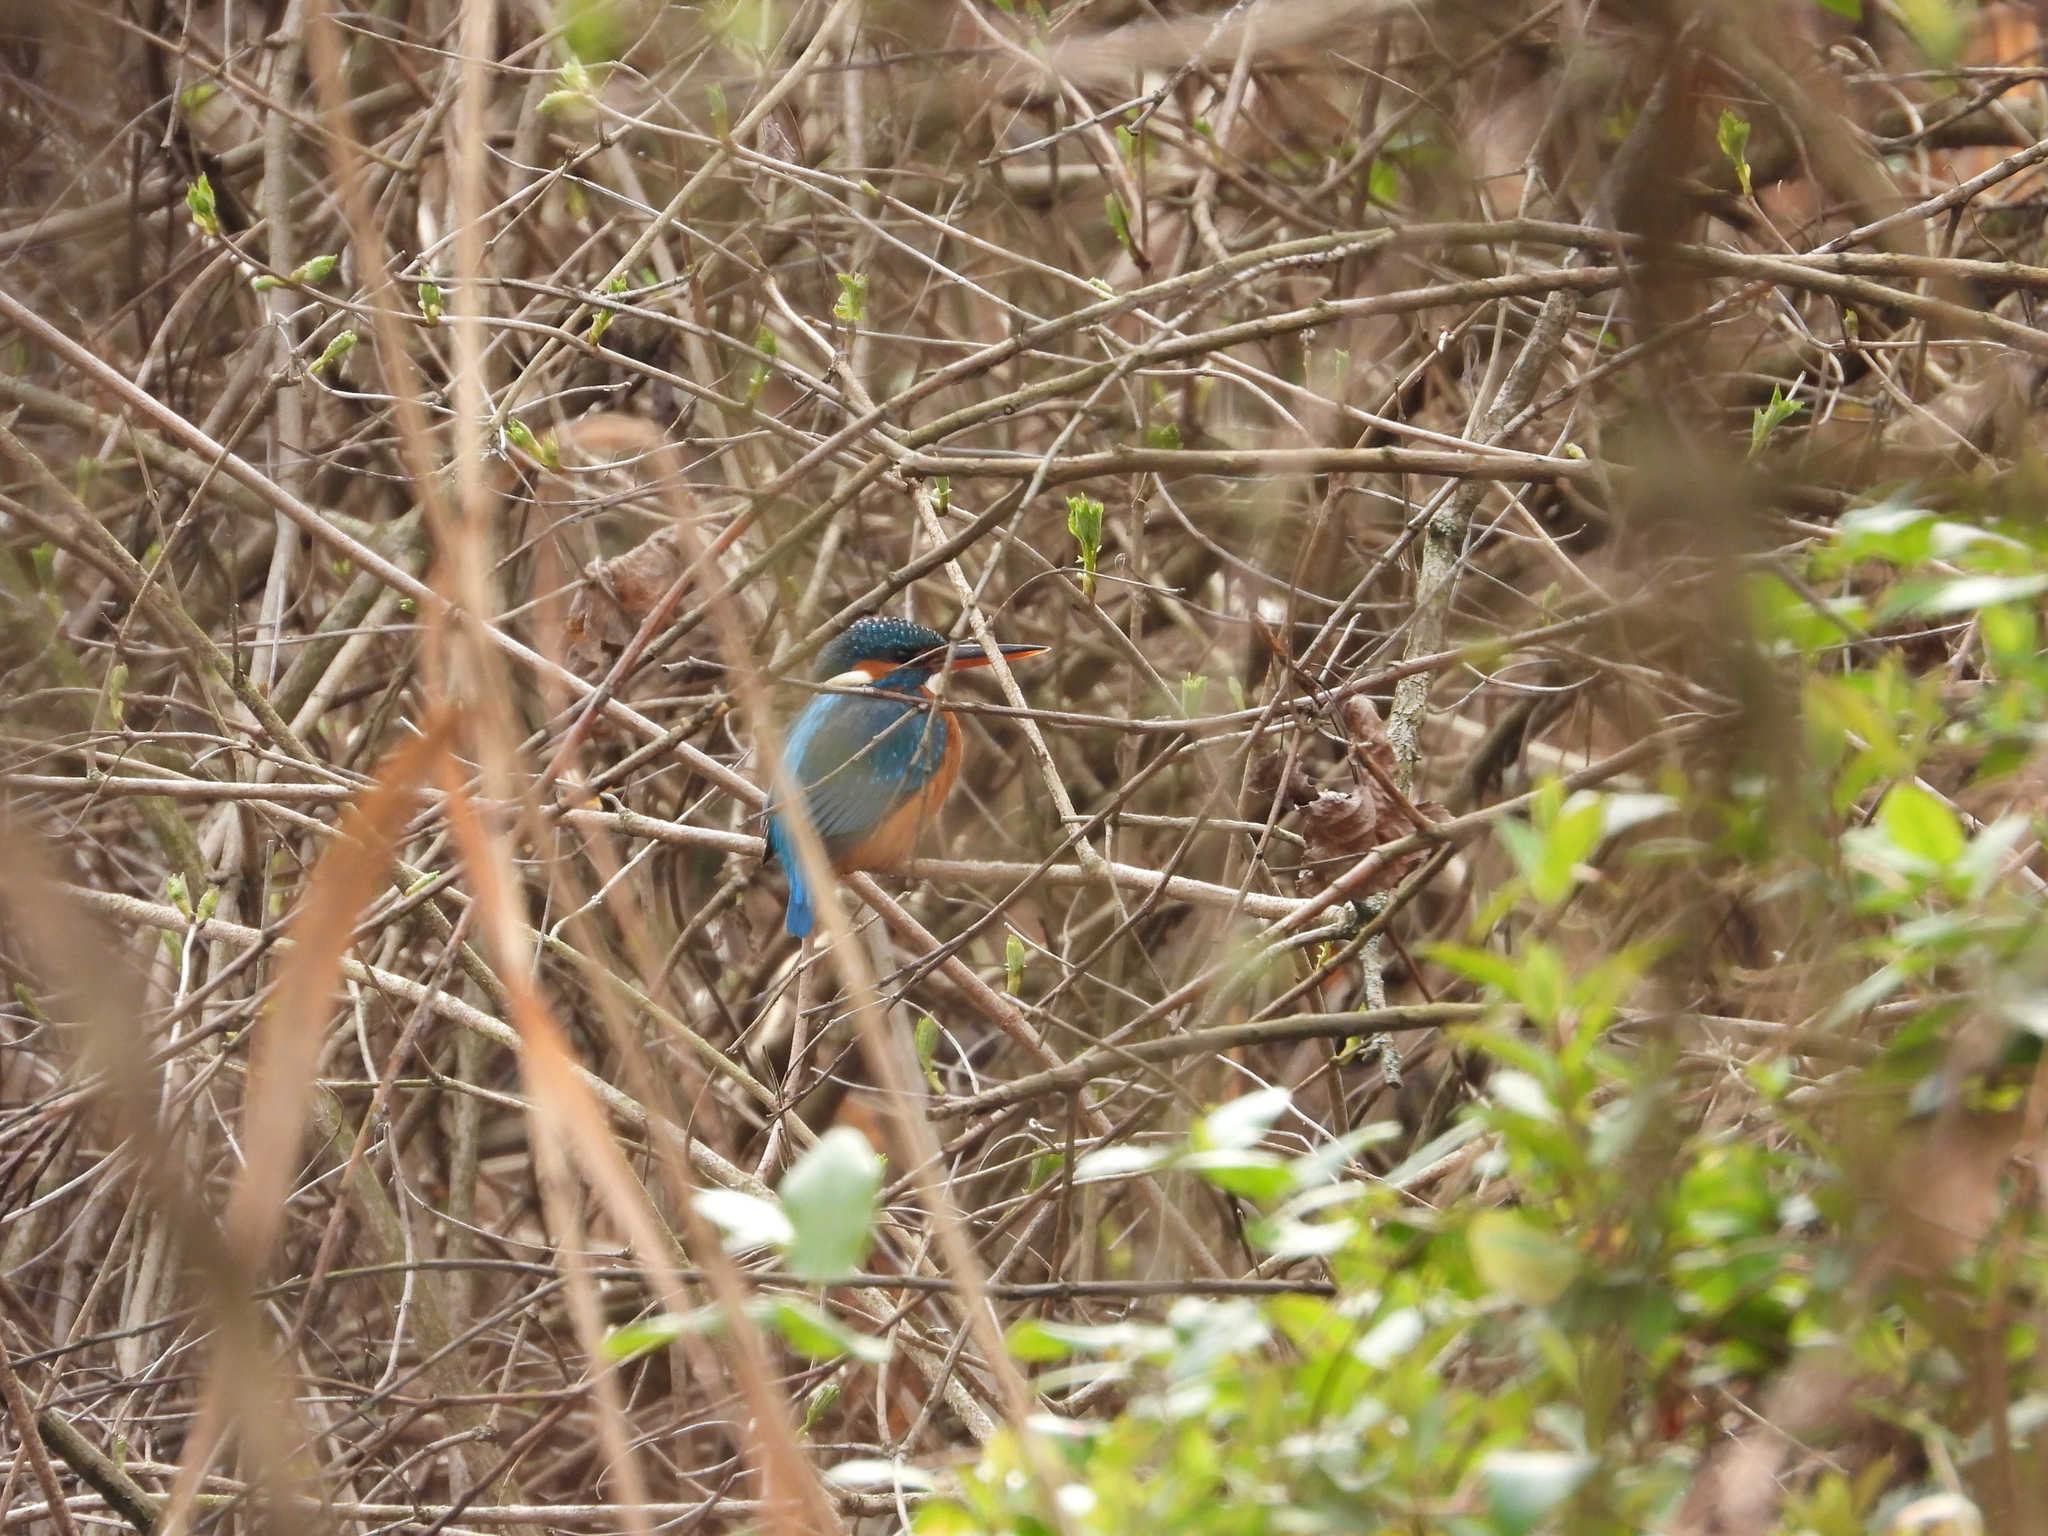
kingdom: Animalia
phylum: Chordata
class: Aves
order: Coraciiformes
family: Alcedinidae
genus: Alcedo
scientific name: Alcedo atthis
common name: Common kingfisher
